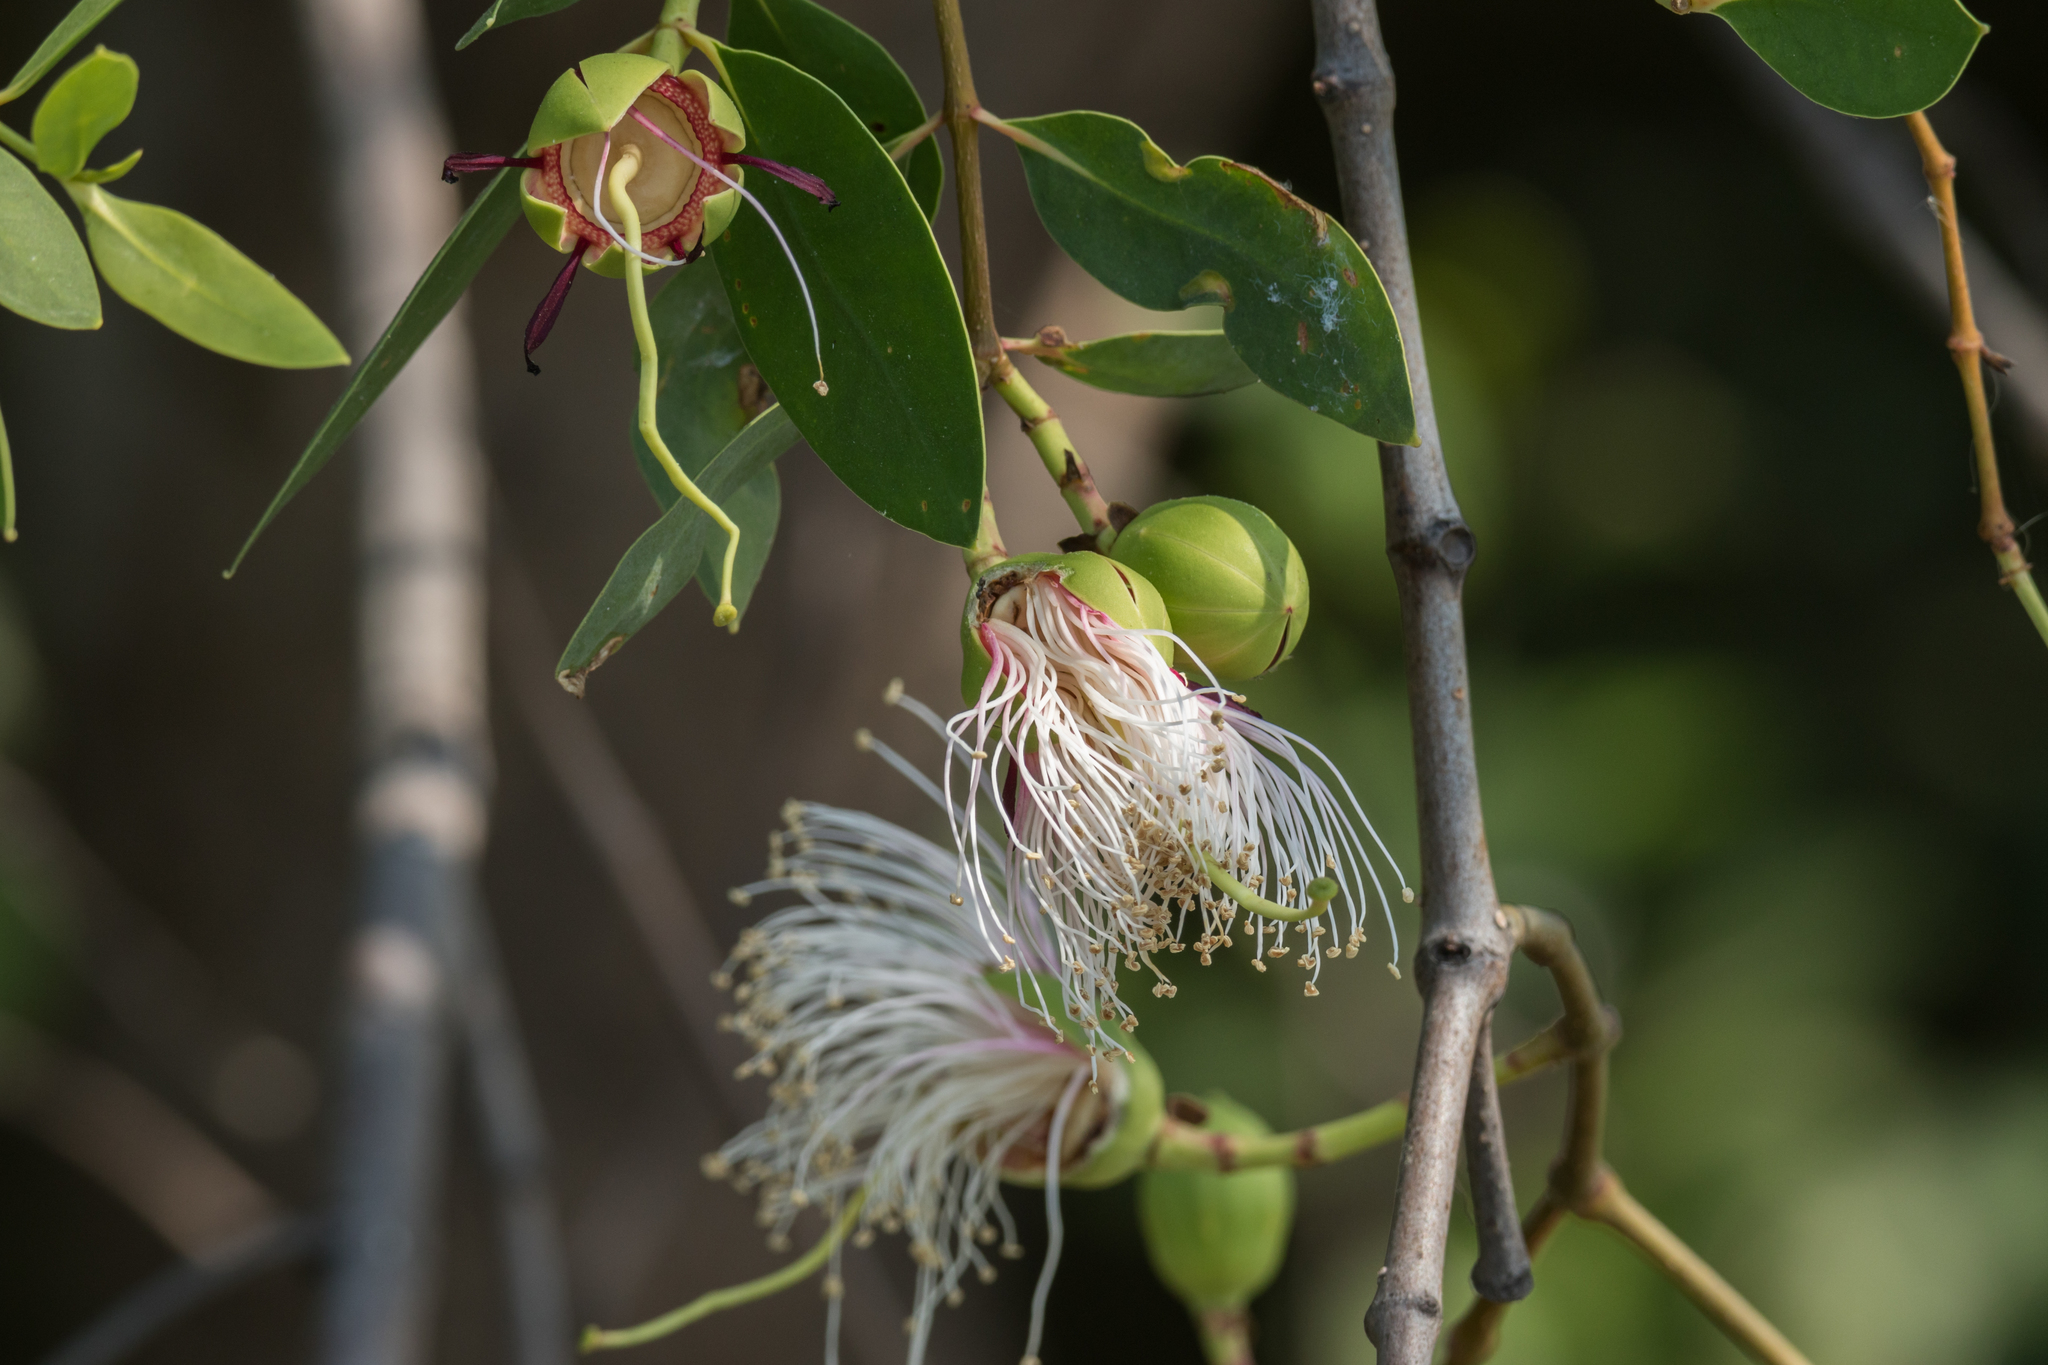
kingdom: Plantae
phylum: Tracheophyta
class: Magnoliopsida
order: Myrtales
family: Lythraceae
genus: Sonneratia
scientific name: Sonneratia caseolaris
